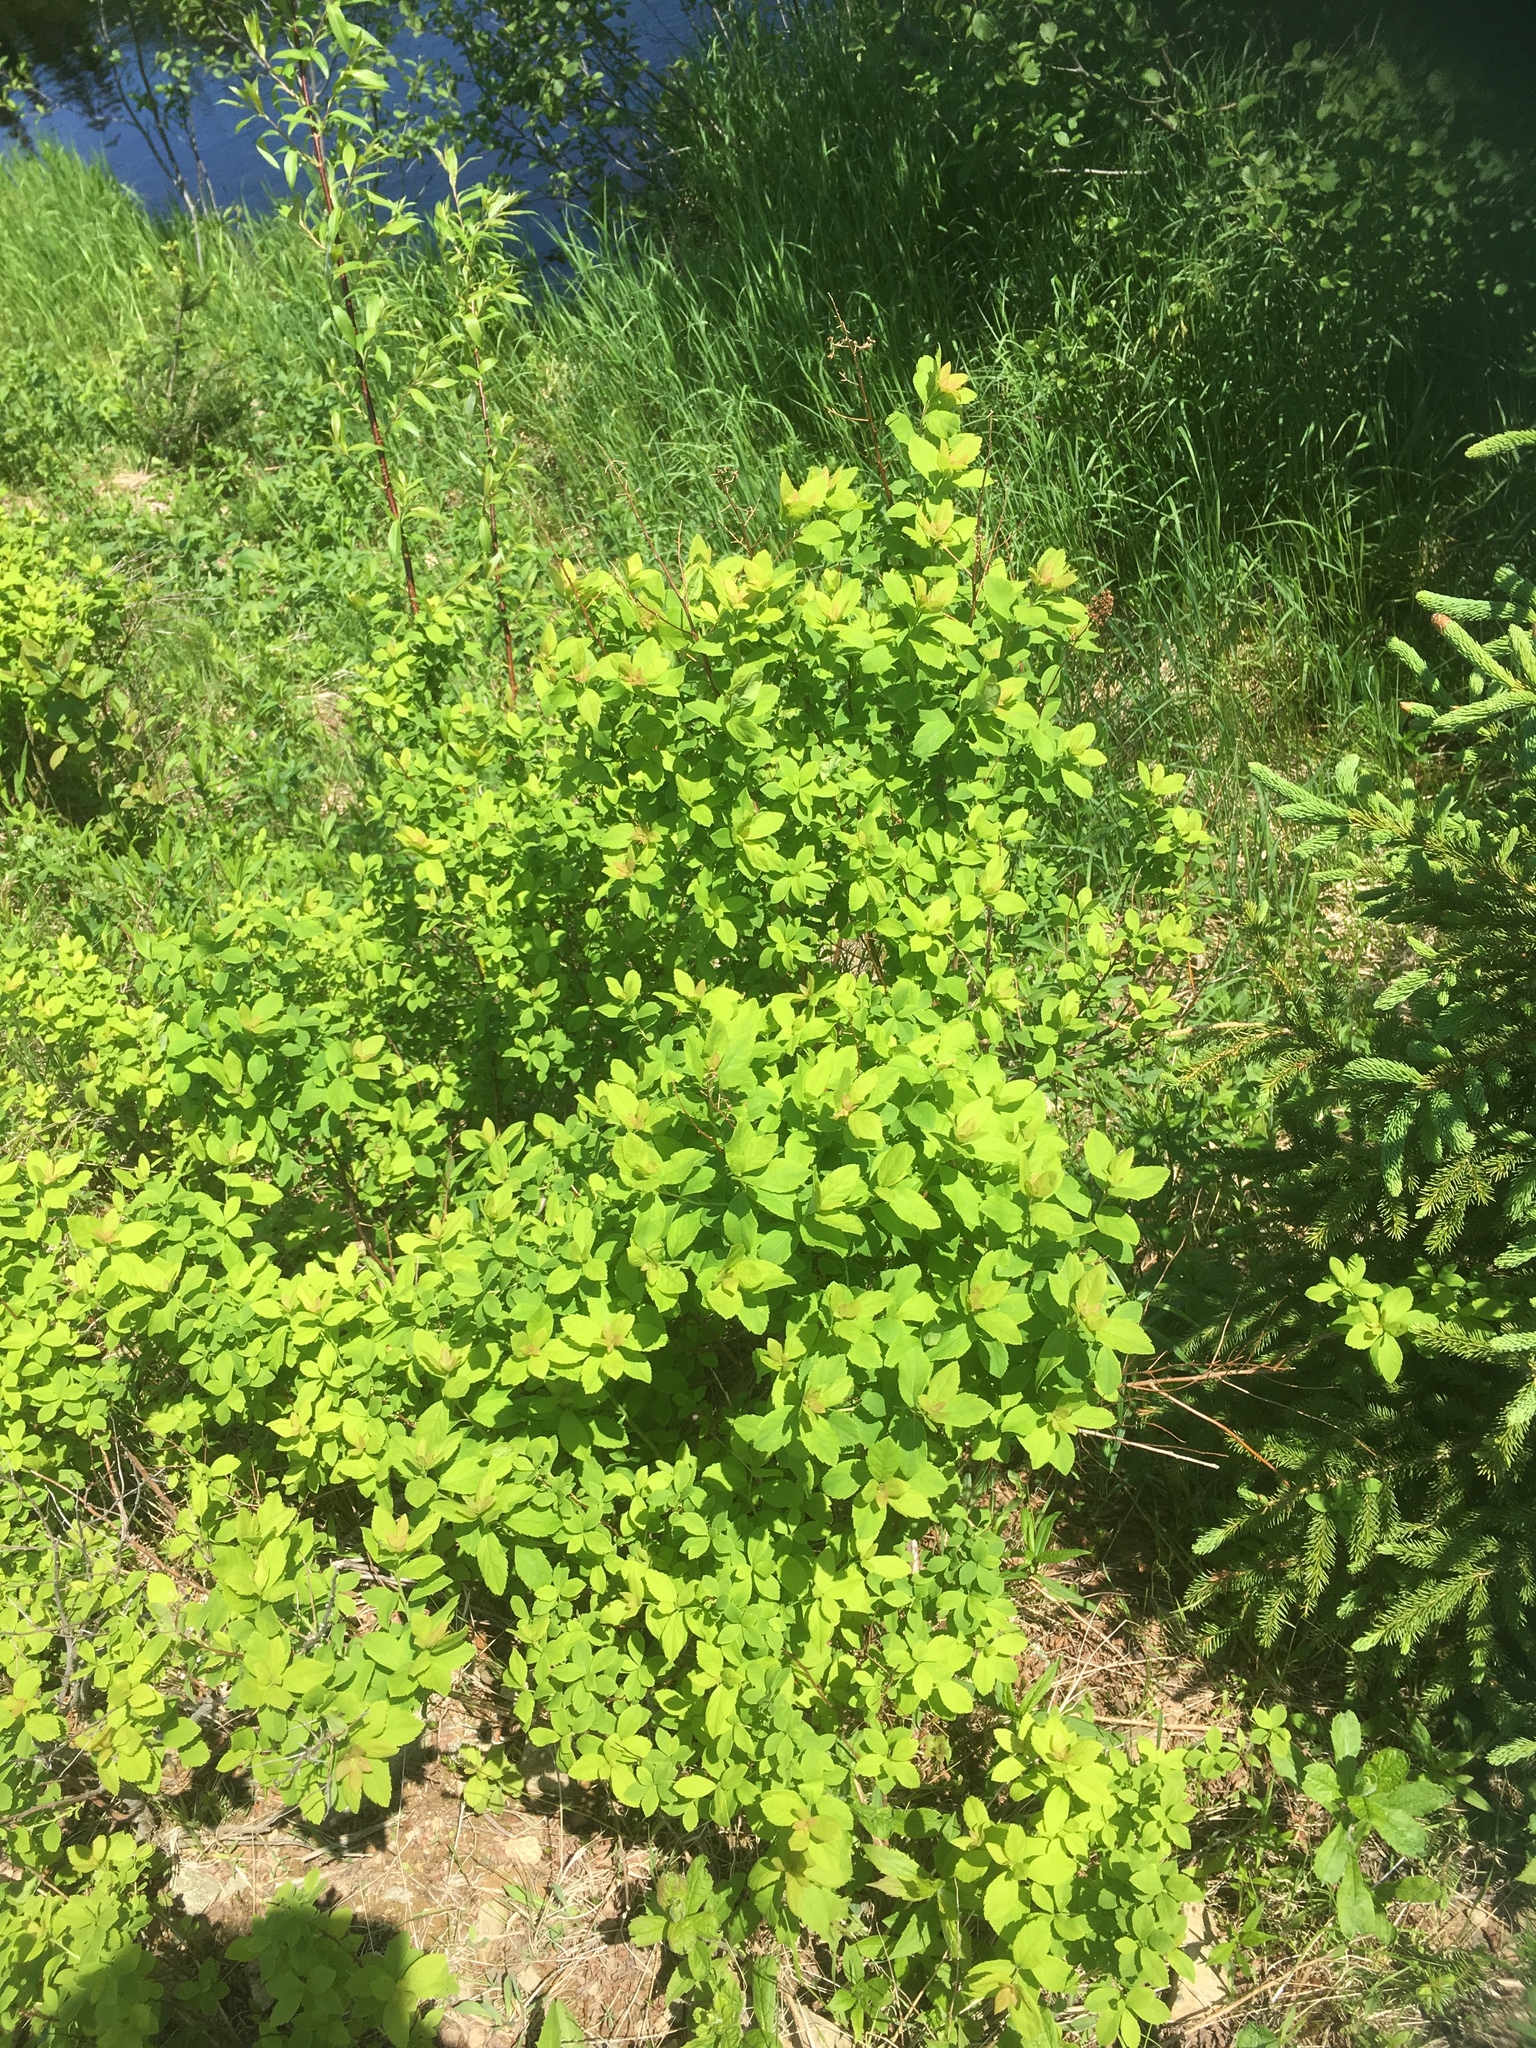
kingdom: Plantae
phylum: Tracheophyta
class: Magnoliopsida
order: Rosales
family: Rosaceae
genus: Spiraea
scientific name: Spiraea alba
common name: Pale bridewort
